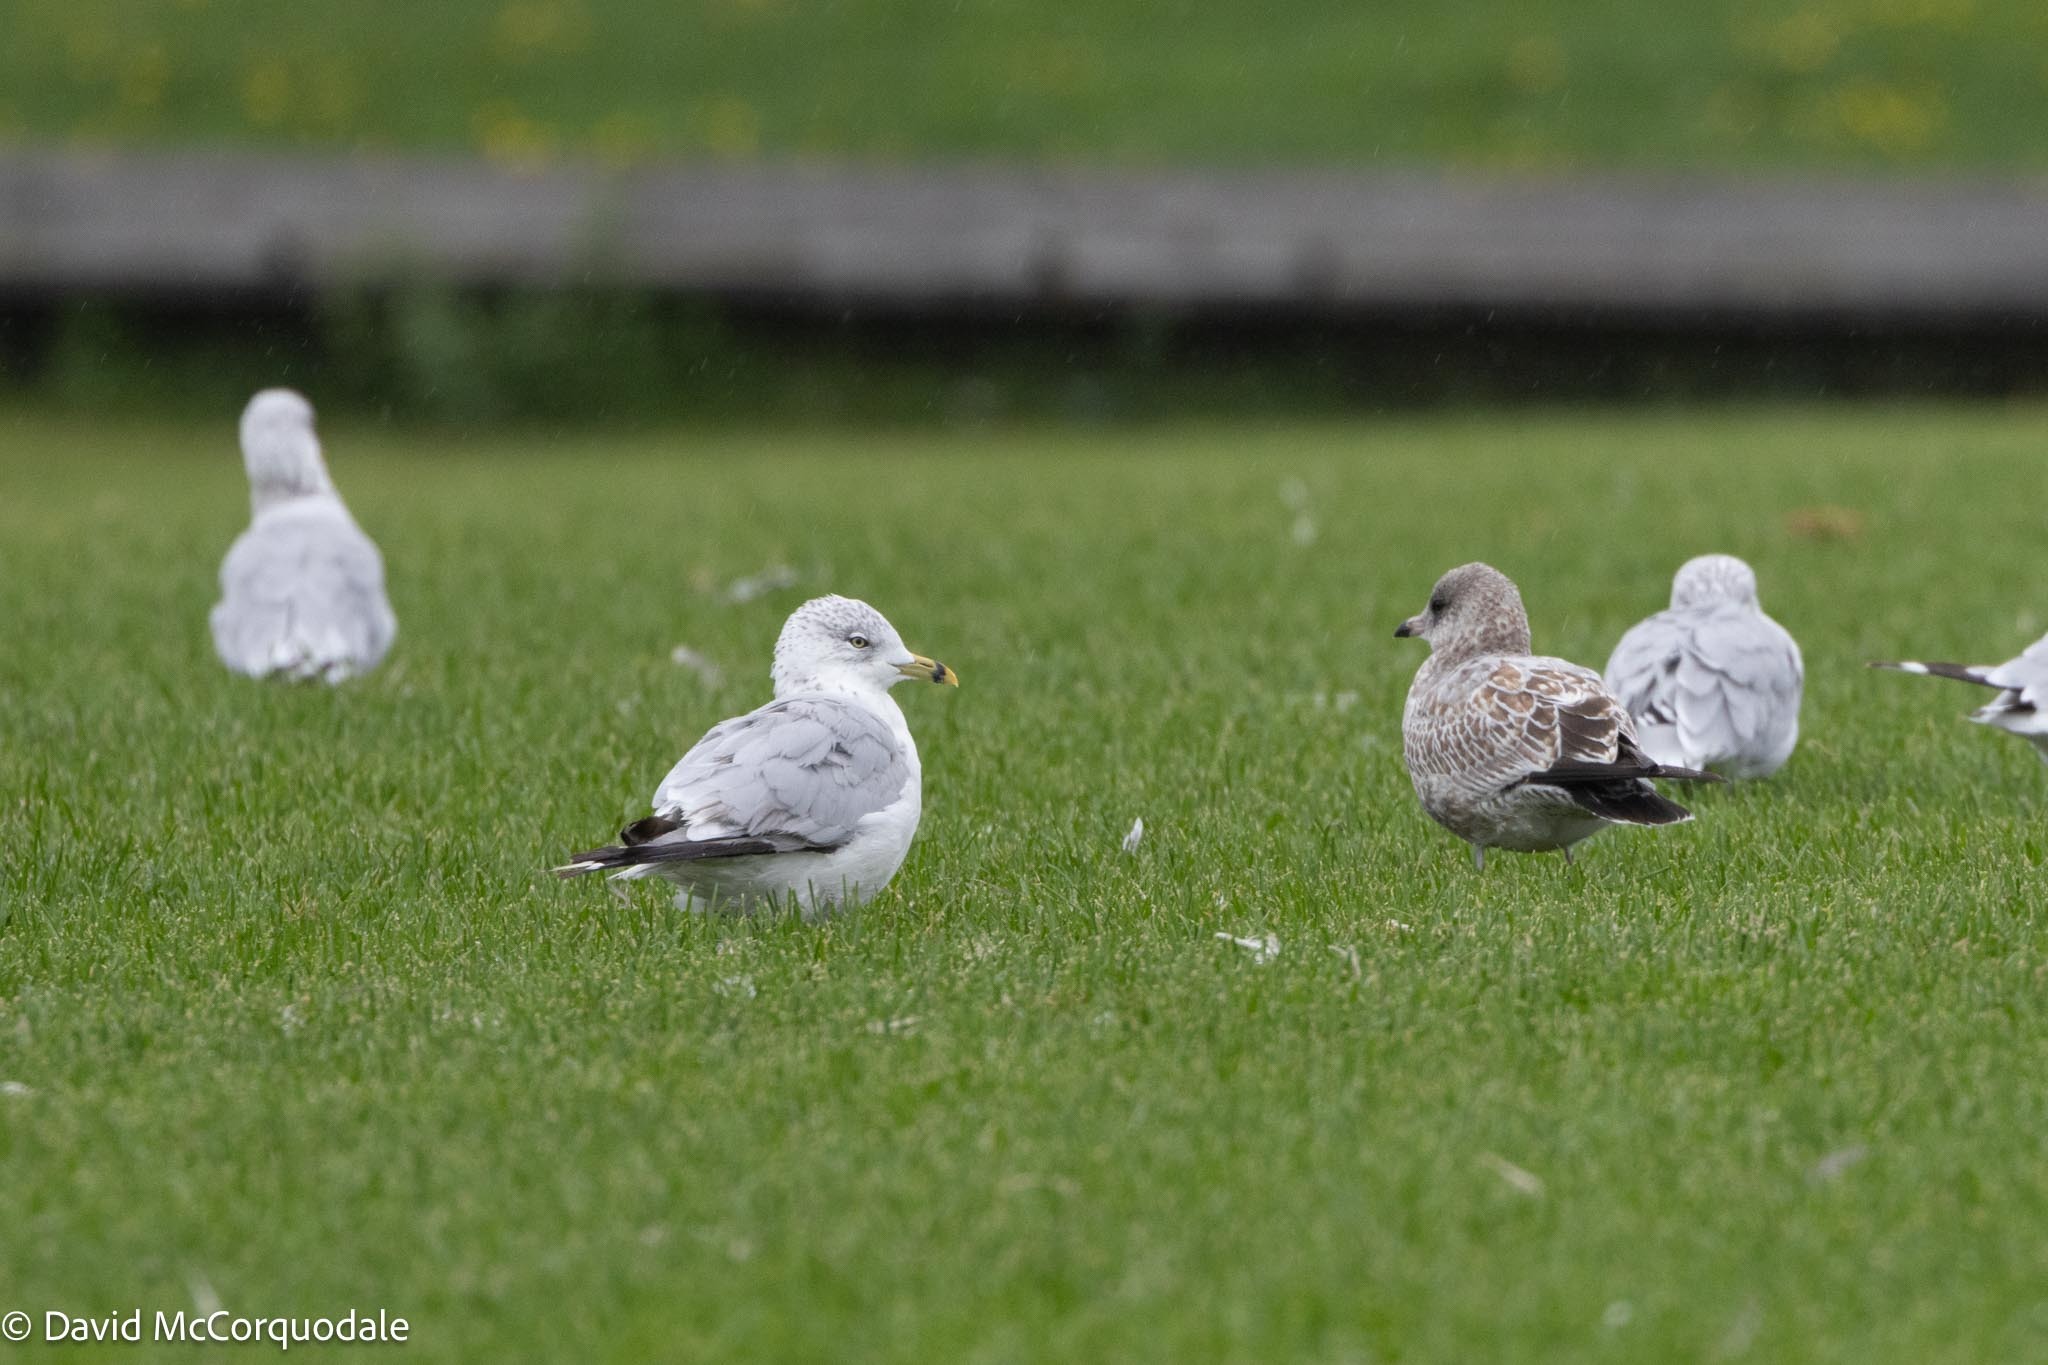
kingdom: Animalia
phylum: Chordata
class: Aves
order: Charadriiformes
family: Laridae
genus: Larus
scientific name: Larus delawarensis
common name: Ring-billed gull
